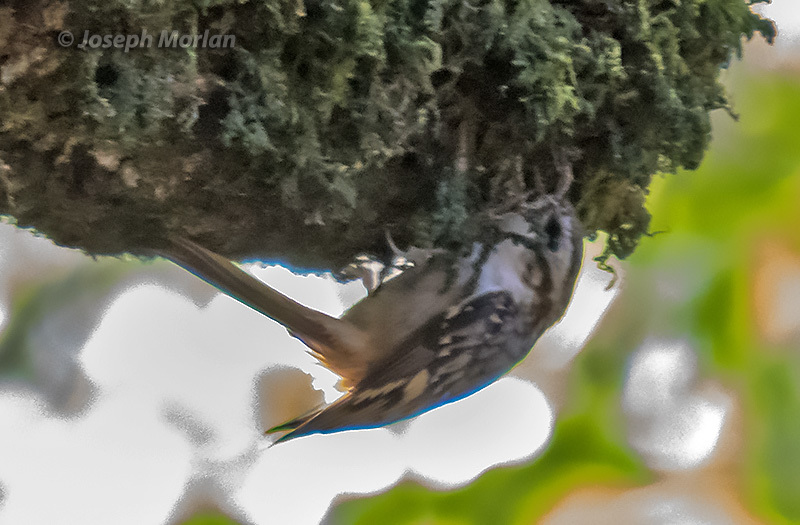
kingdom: Animalia
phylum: Chordata
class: Aves
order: Passeriformes
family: Certhiidae
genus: Certhia
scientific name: Certhia americana
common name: Brown creeper
